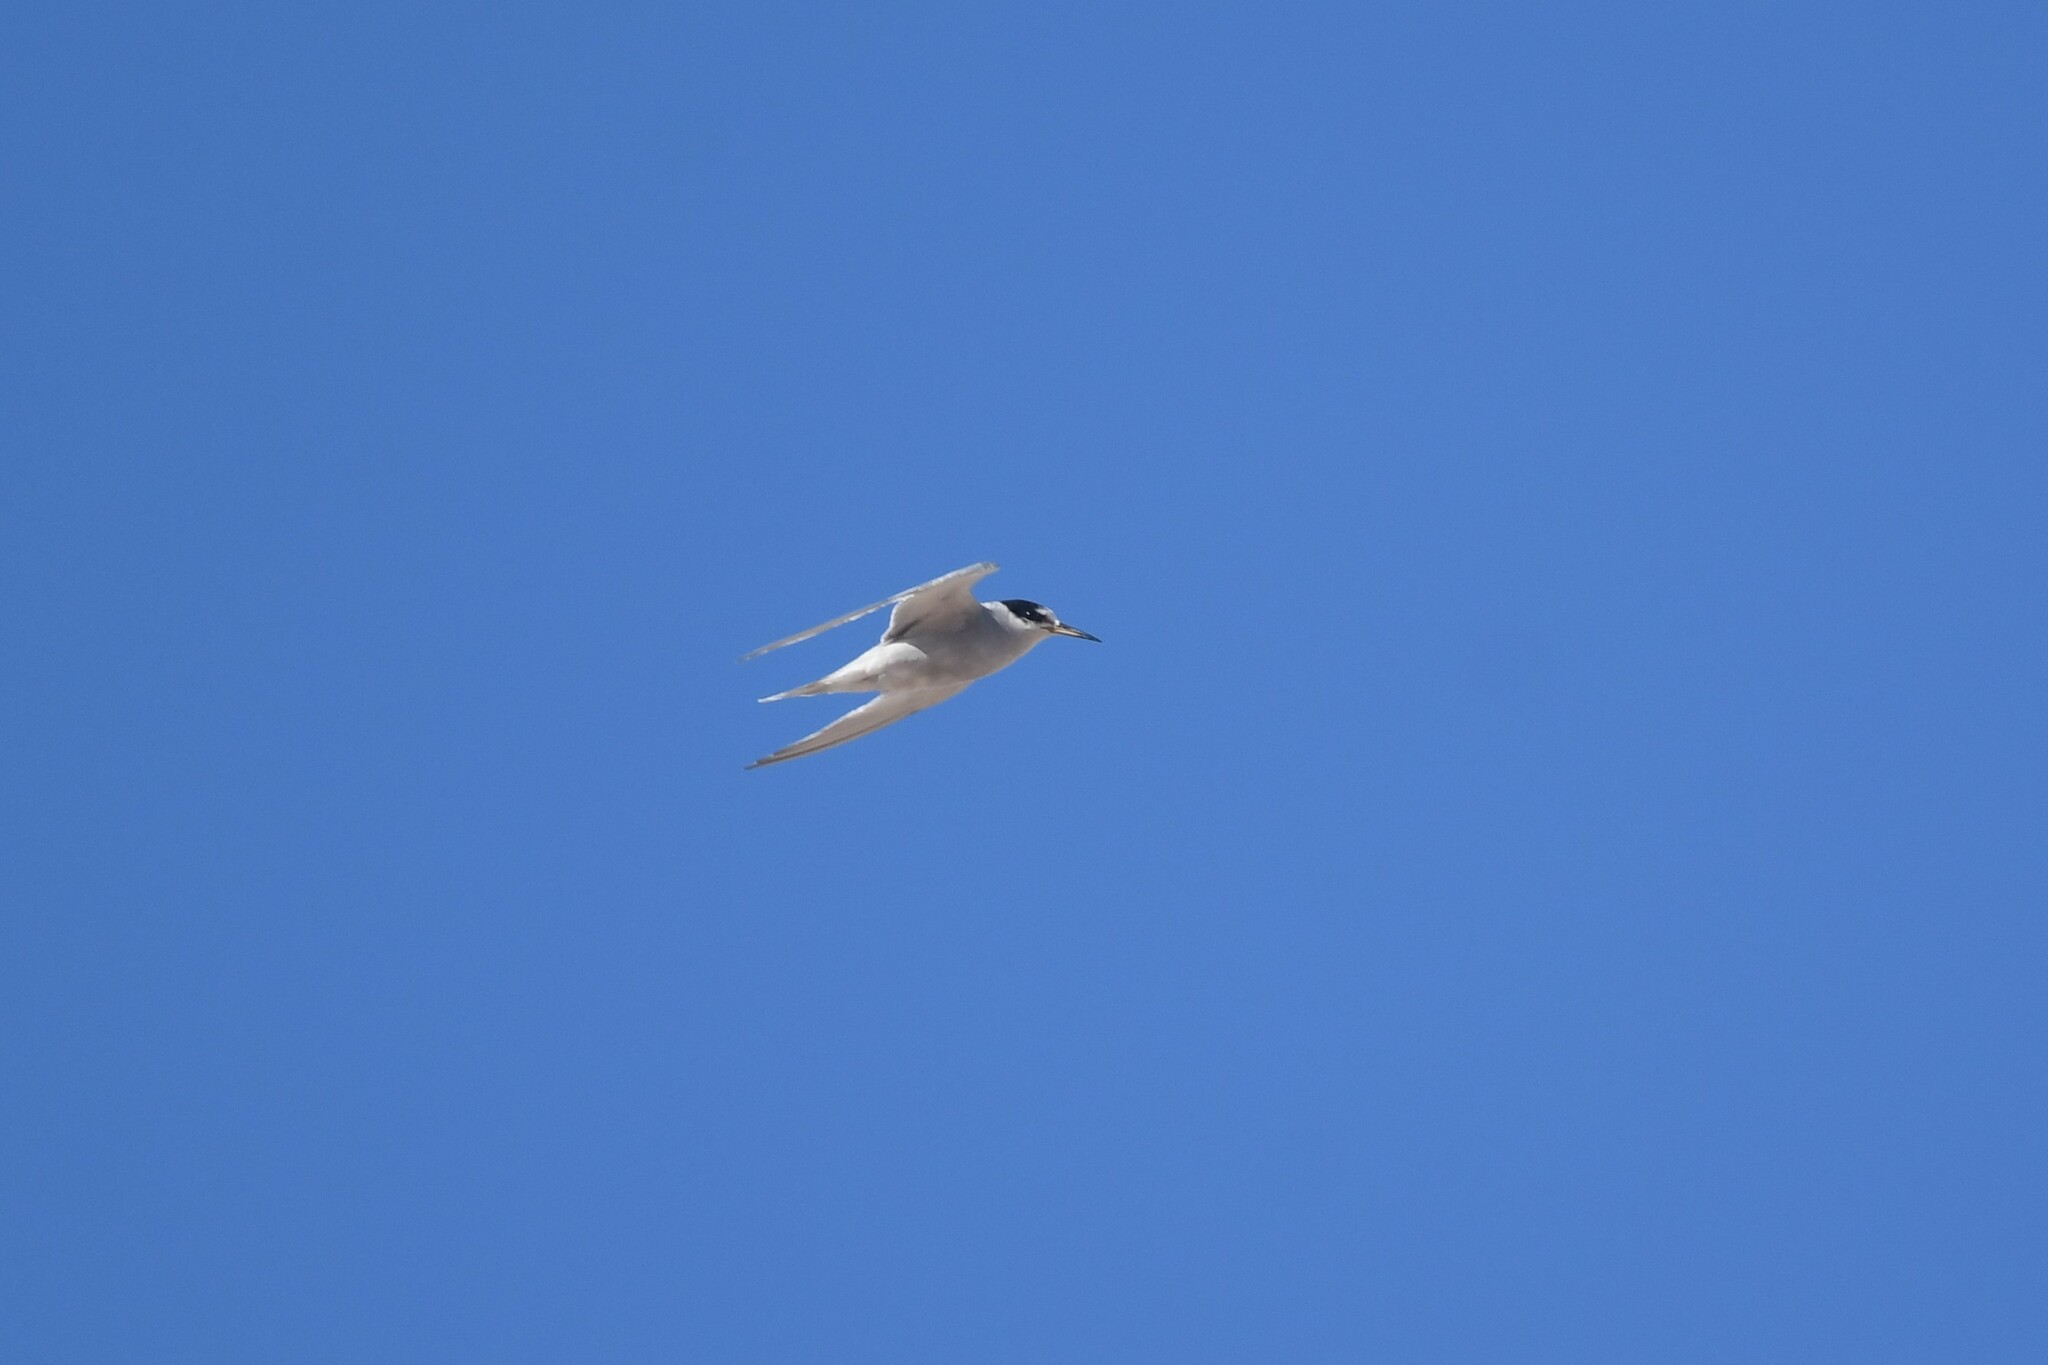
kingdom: Animalia
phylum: Chordata
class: Aves
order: Charadriiformes
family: Laridae
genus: Sternula
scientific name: Sternula lorata
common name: Peruvian tern
